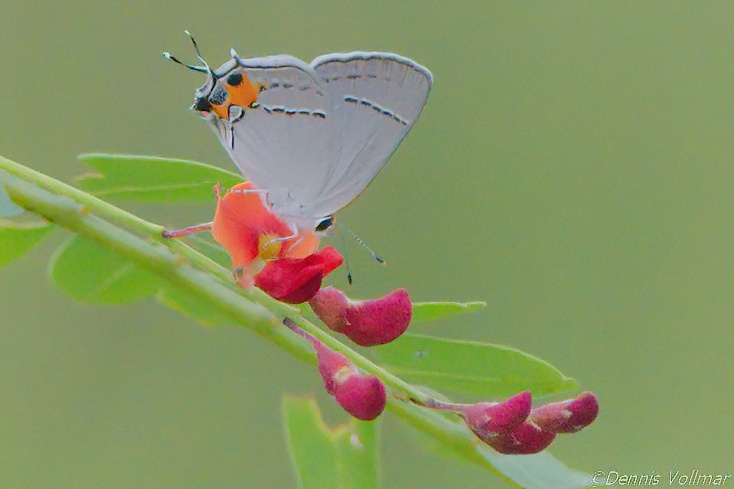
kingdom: Animalia
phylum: Arthropoda
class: Insecta
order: Lepidoptera
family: Lycaenidae
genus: Strymon
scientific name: Strymon melinus
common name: Gray hairstreak
